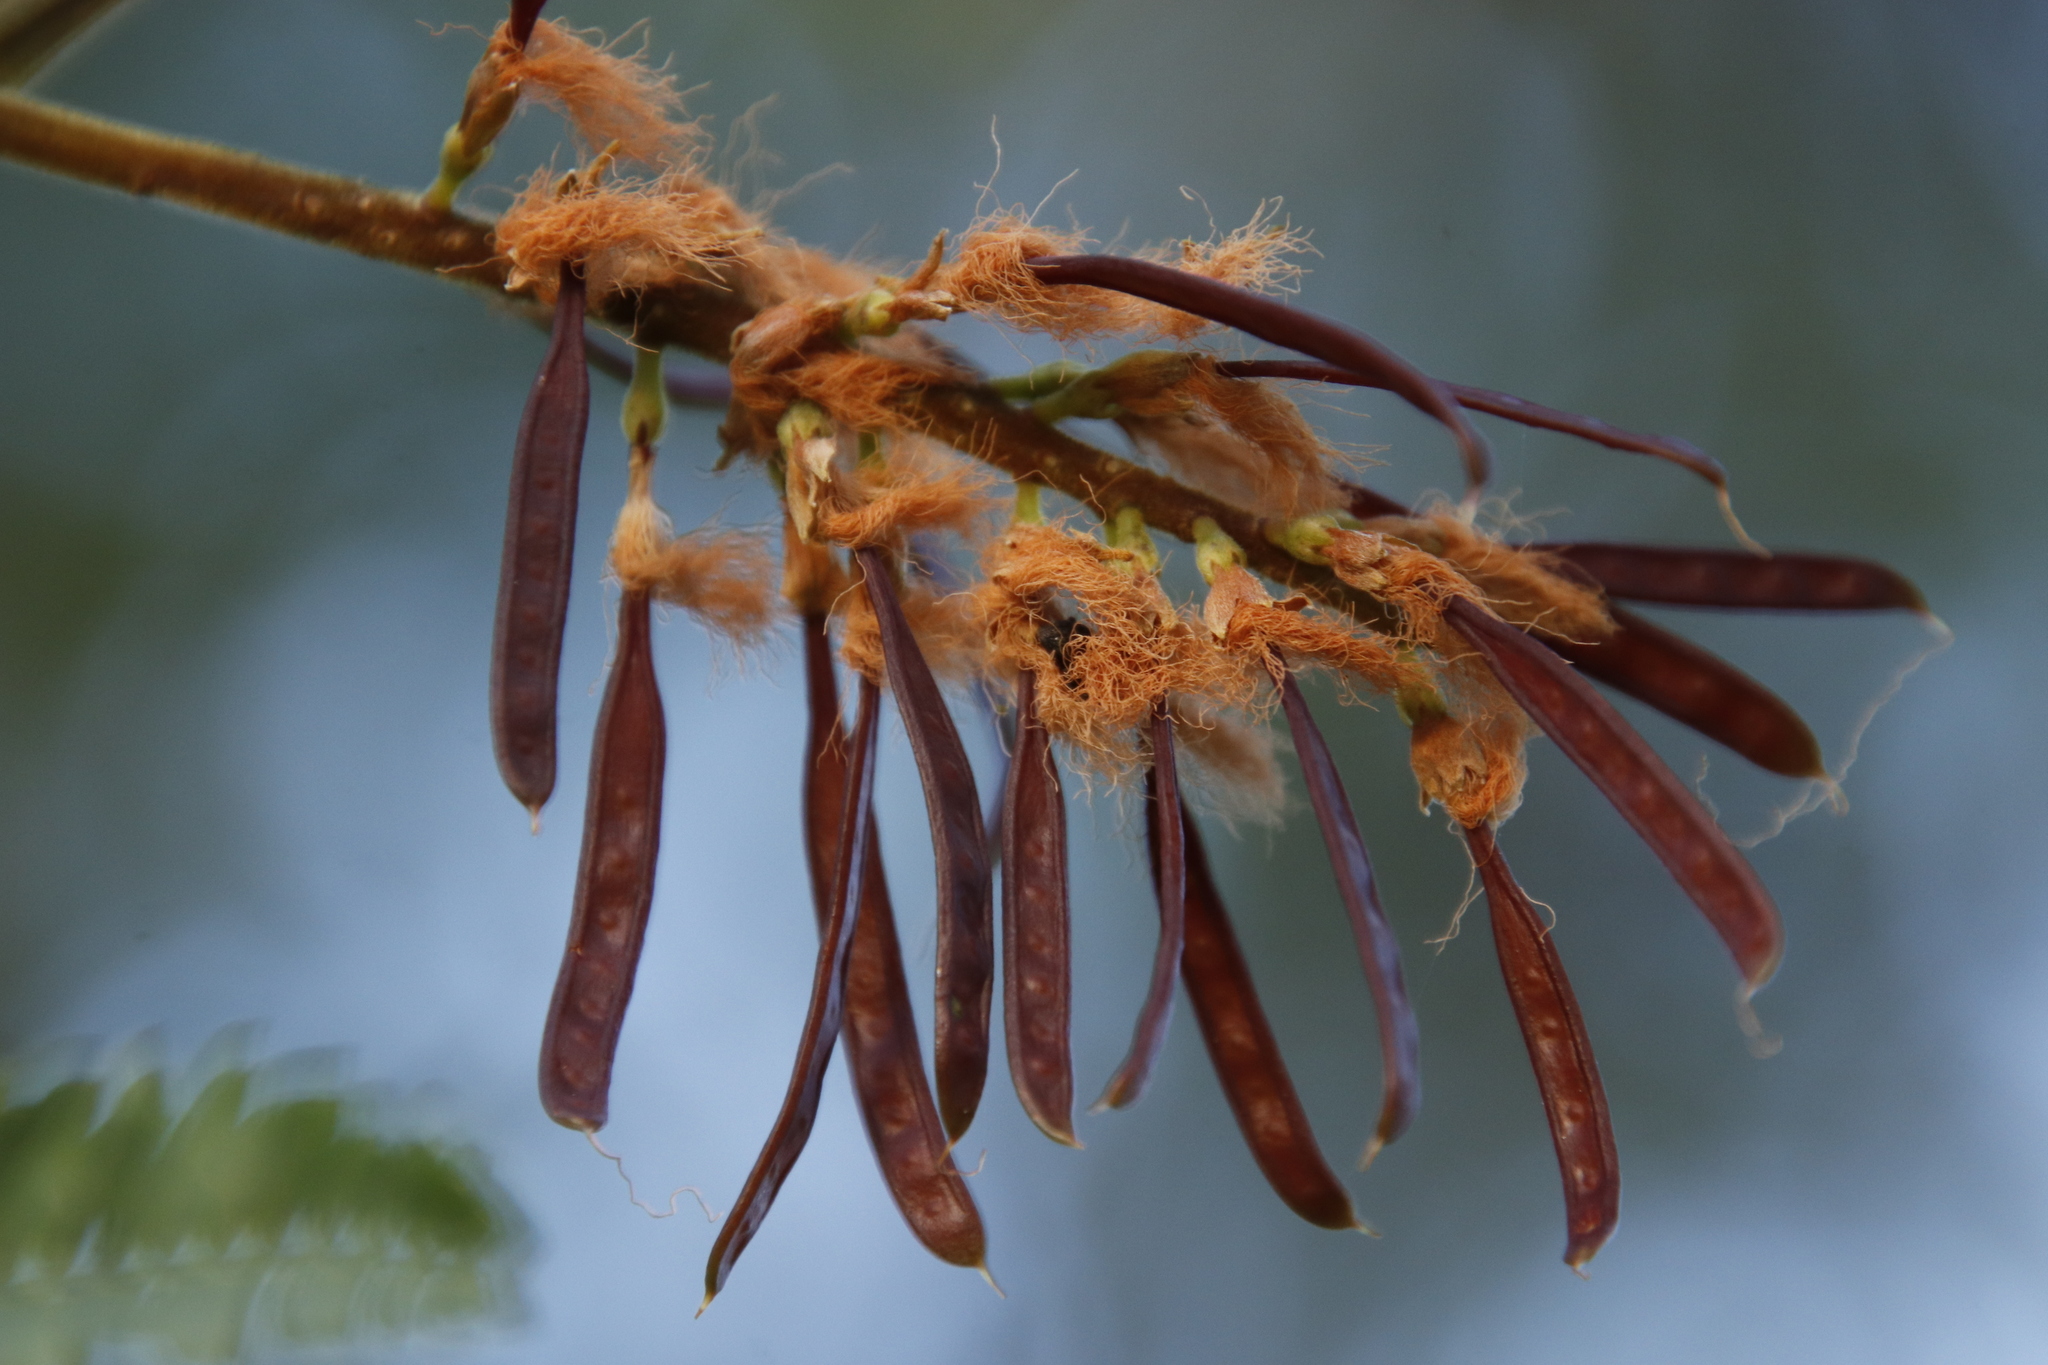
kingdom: Plantae
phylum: Tracheophyta
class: Magnoliopsida
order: Fabales
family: Fabaceae
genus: Paraserianthes
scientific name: Paraserianthes lophantha
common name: Plume albizia
